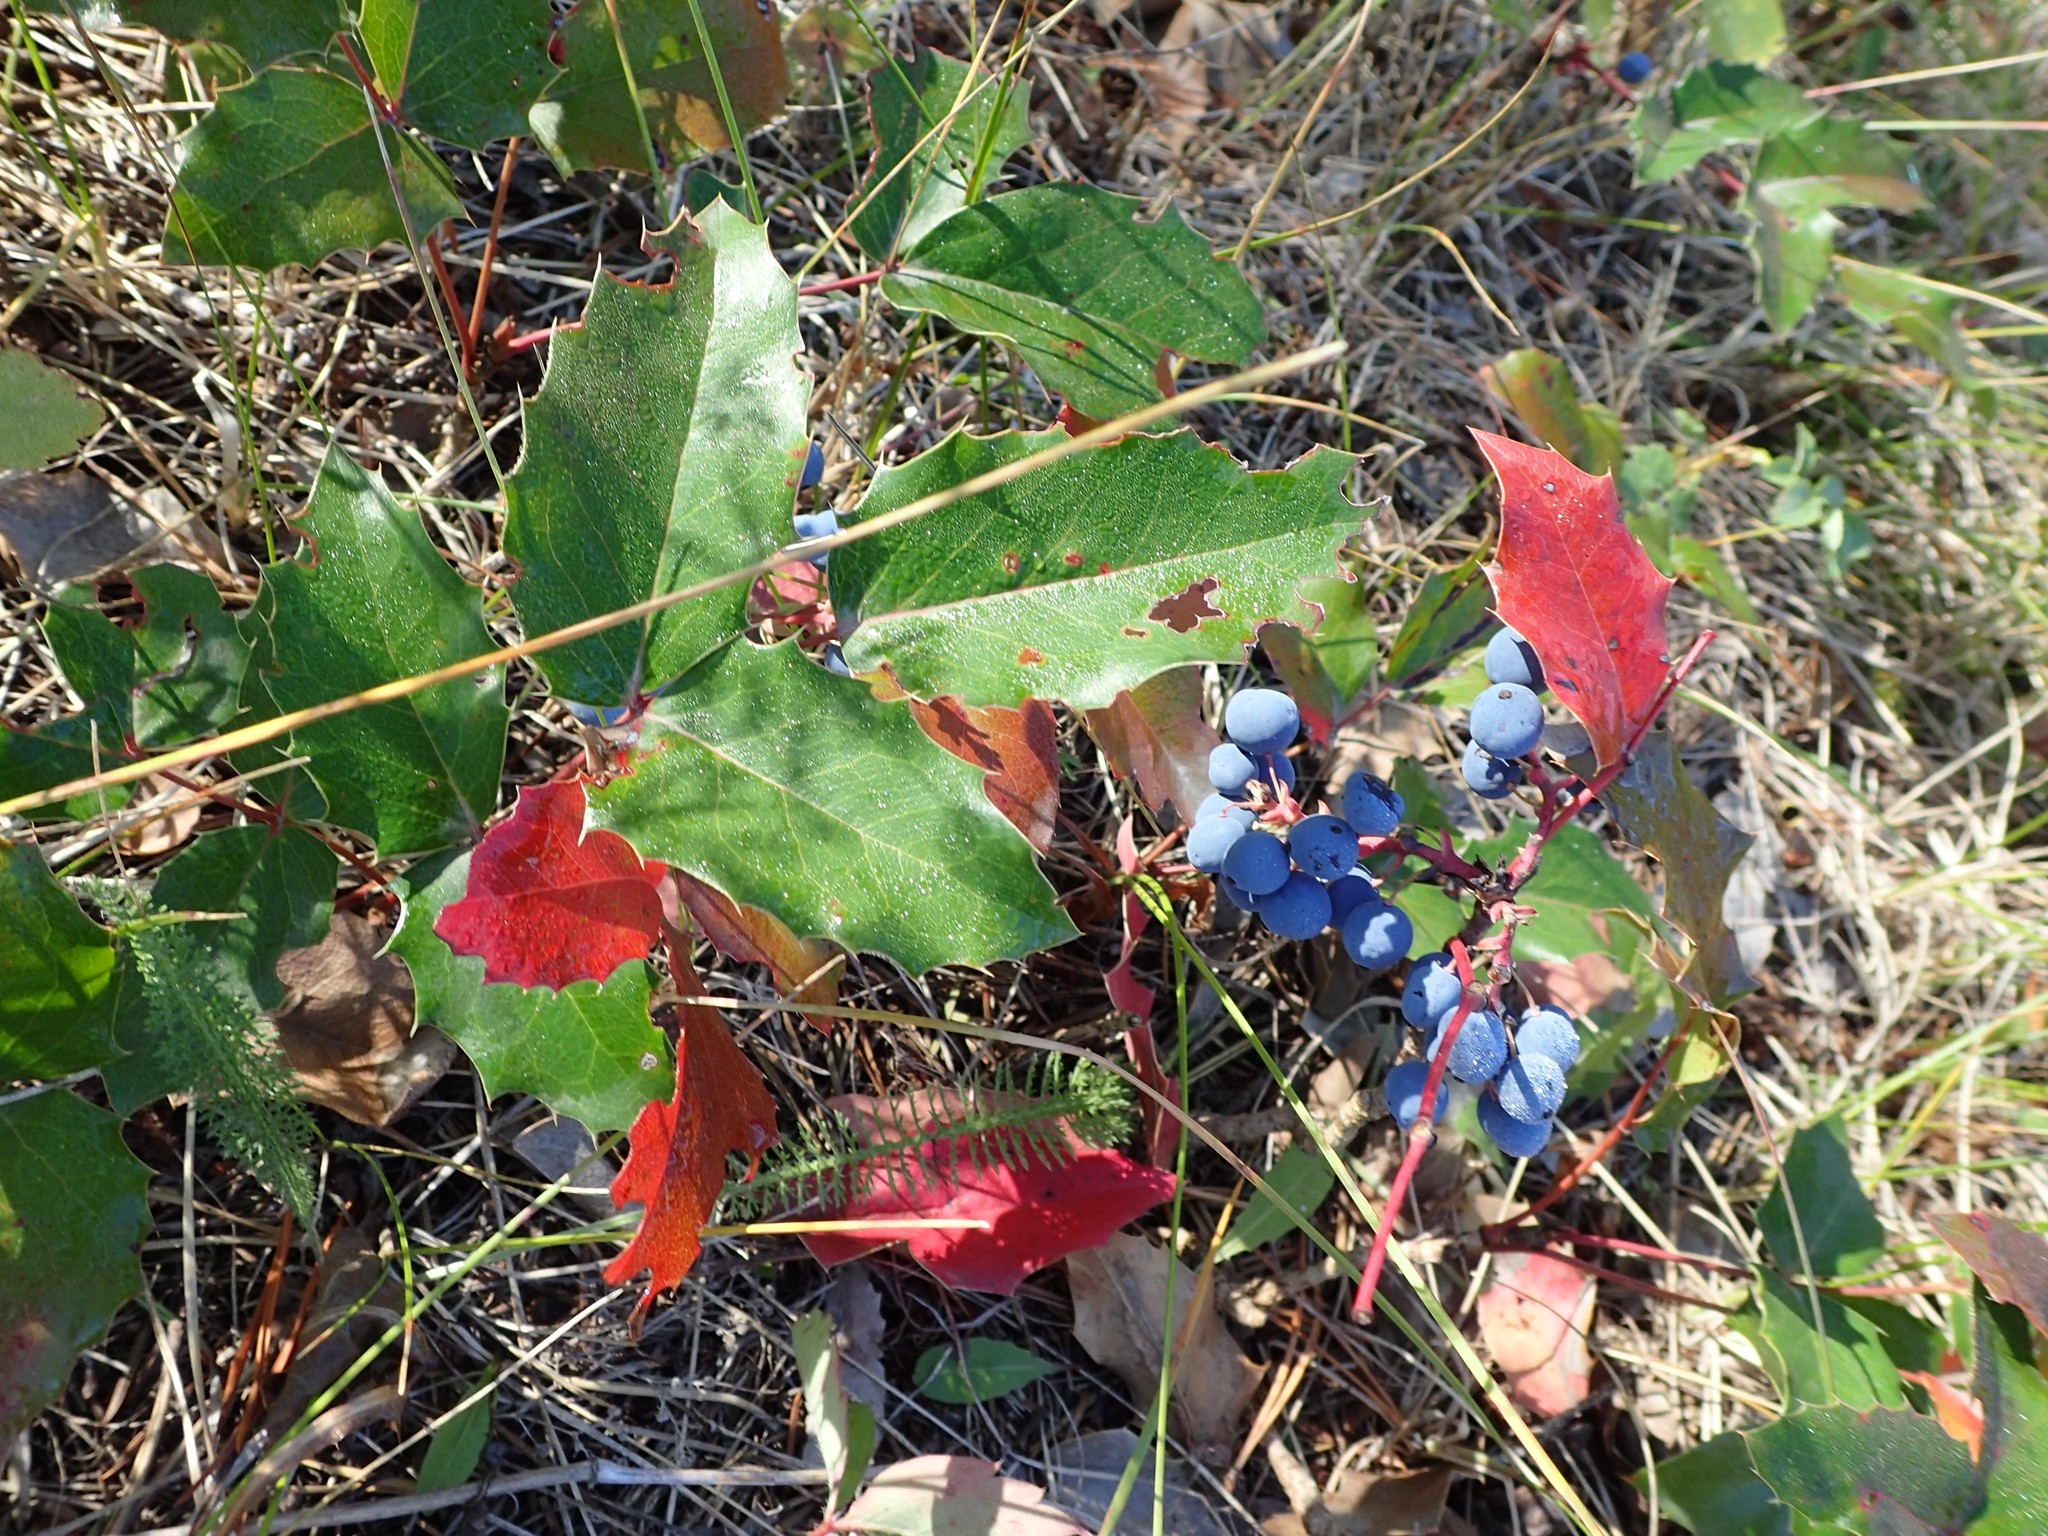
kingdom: Plantae
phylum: Tracheophyta
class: Magnoliopsida
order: Ranunculales
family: Berberidaceae
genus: Mahonia
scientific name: Mahonia repens
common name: Creeping oregon-grape
